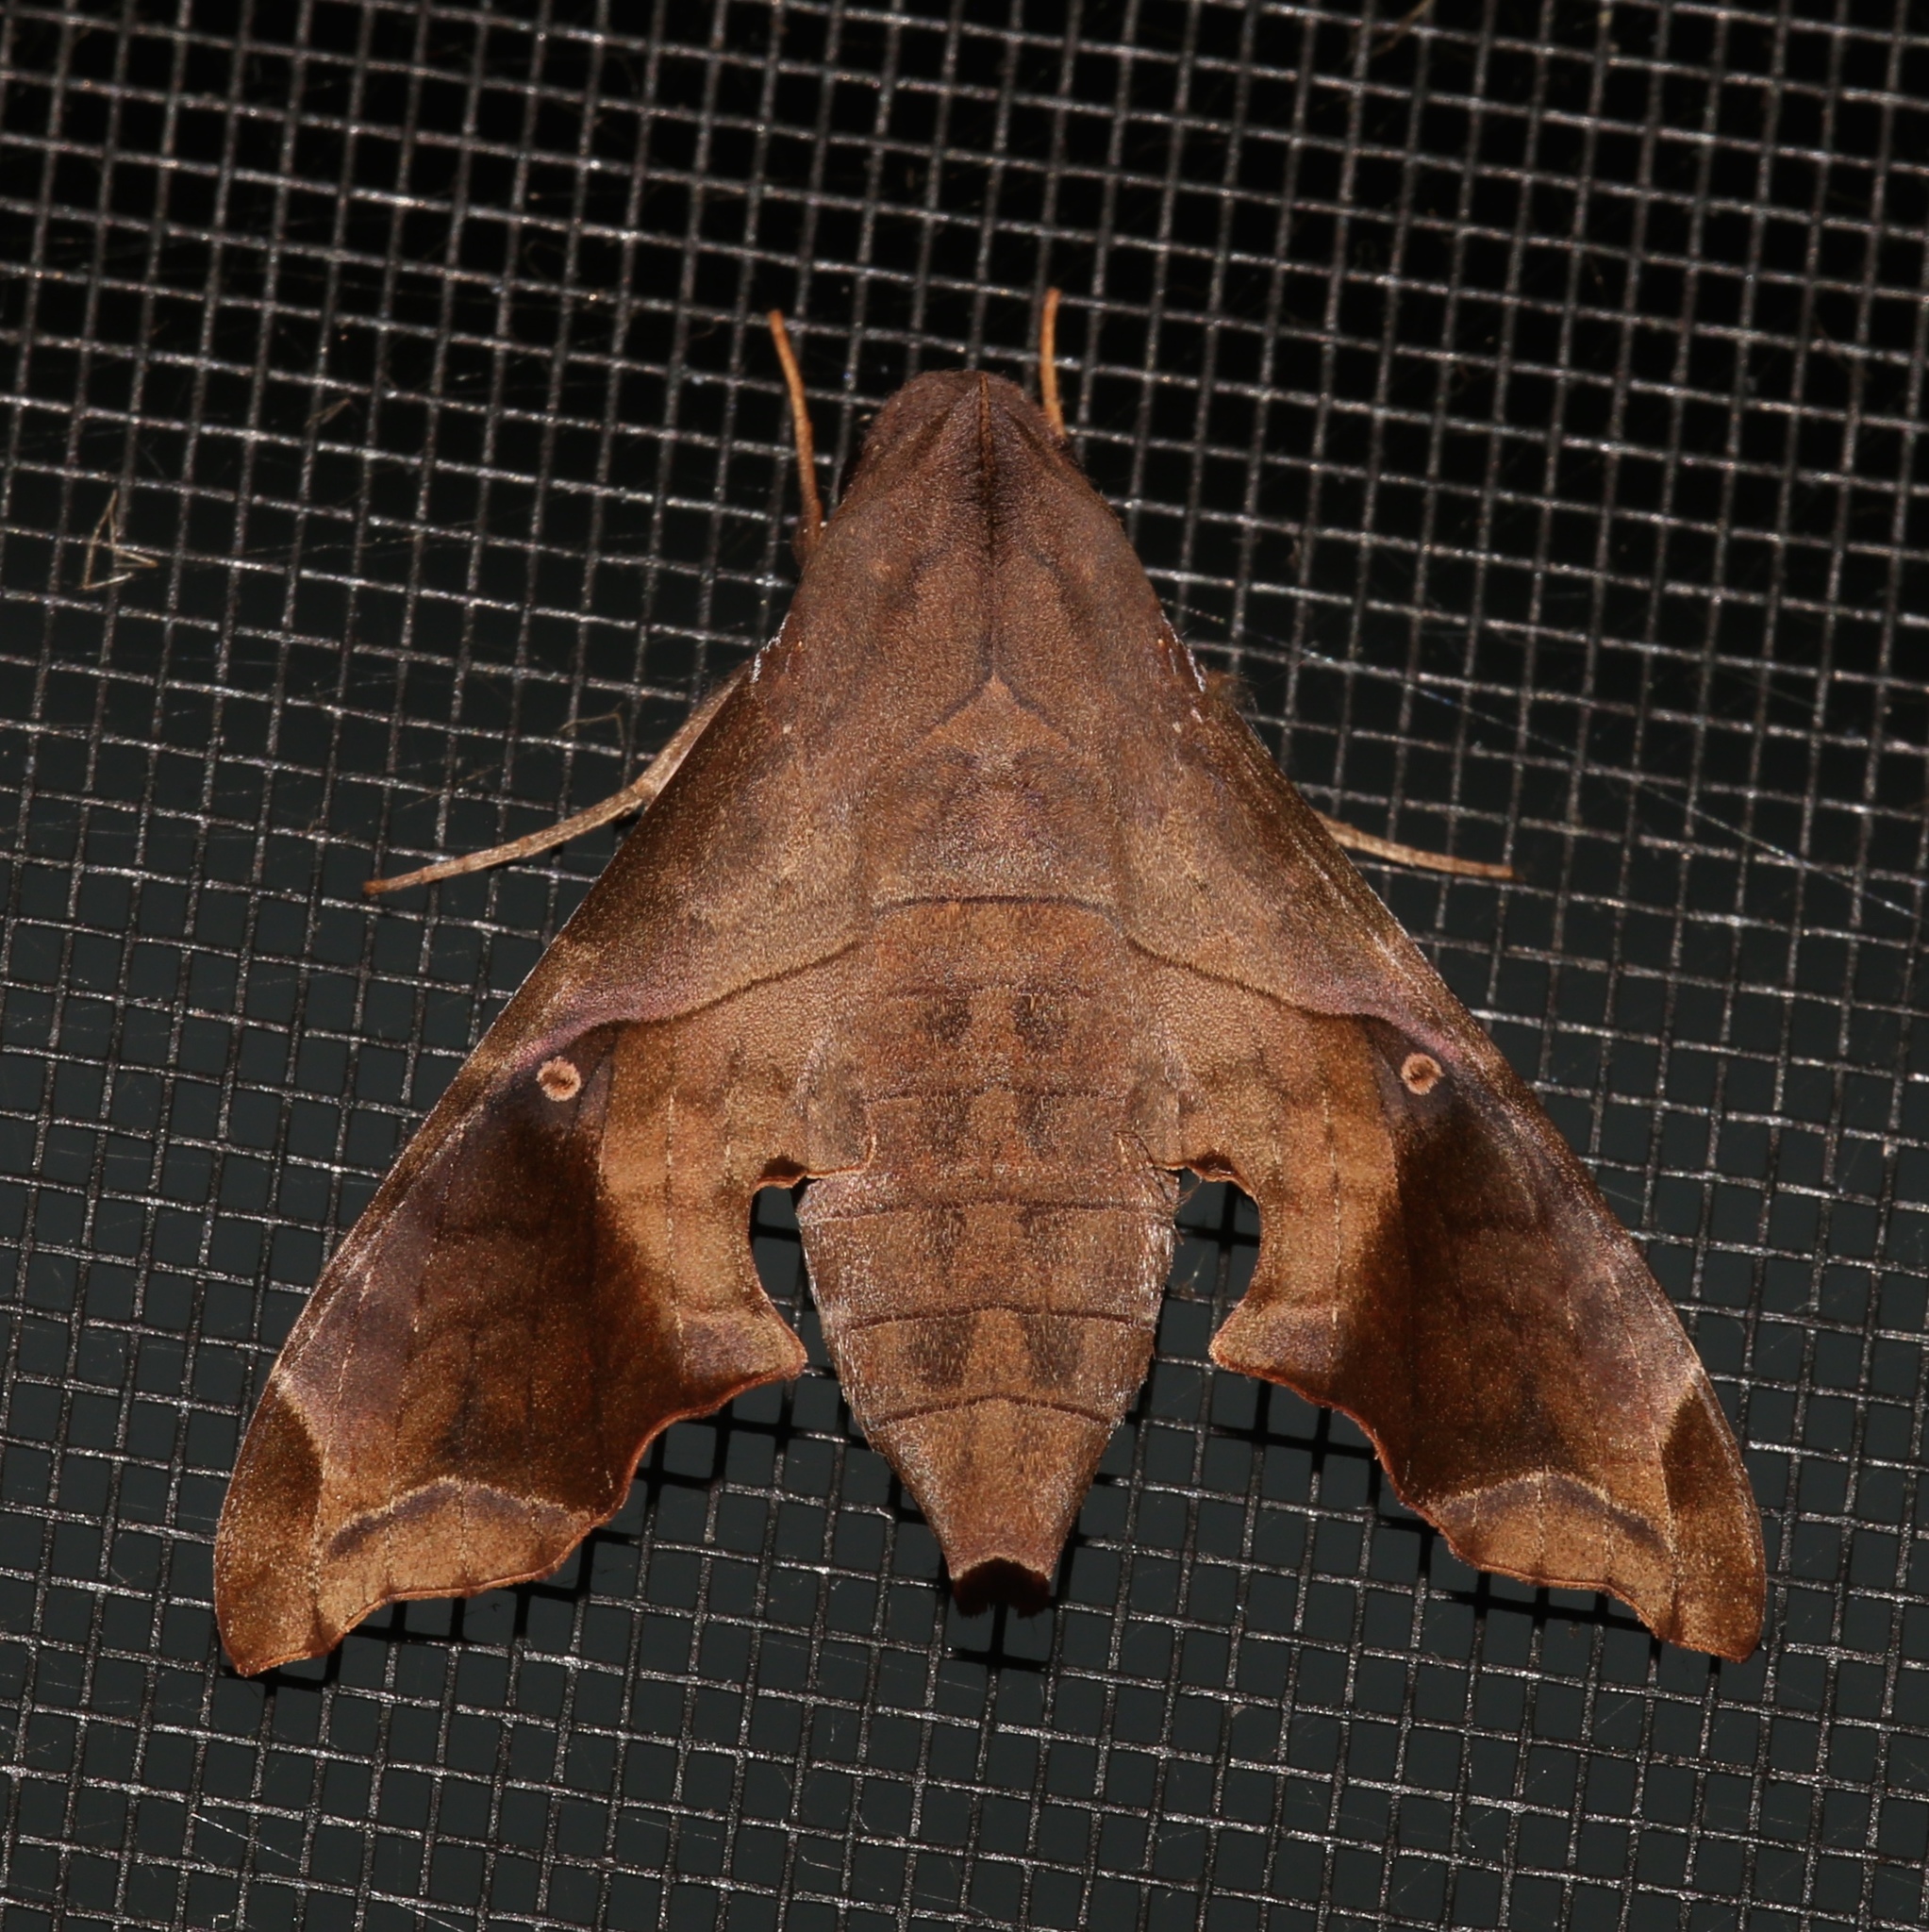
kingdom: Animalia
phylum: Arthropoda
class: Insecta
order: Lepidoptera
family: Sphingidae
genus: Enyo
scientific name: Enyo lugubris
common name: Mournful sphinx
